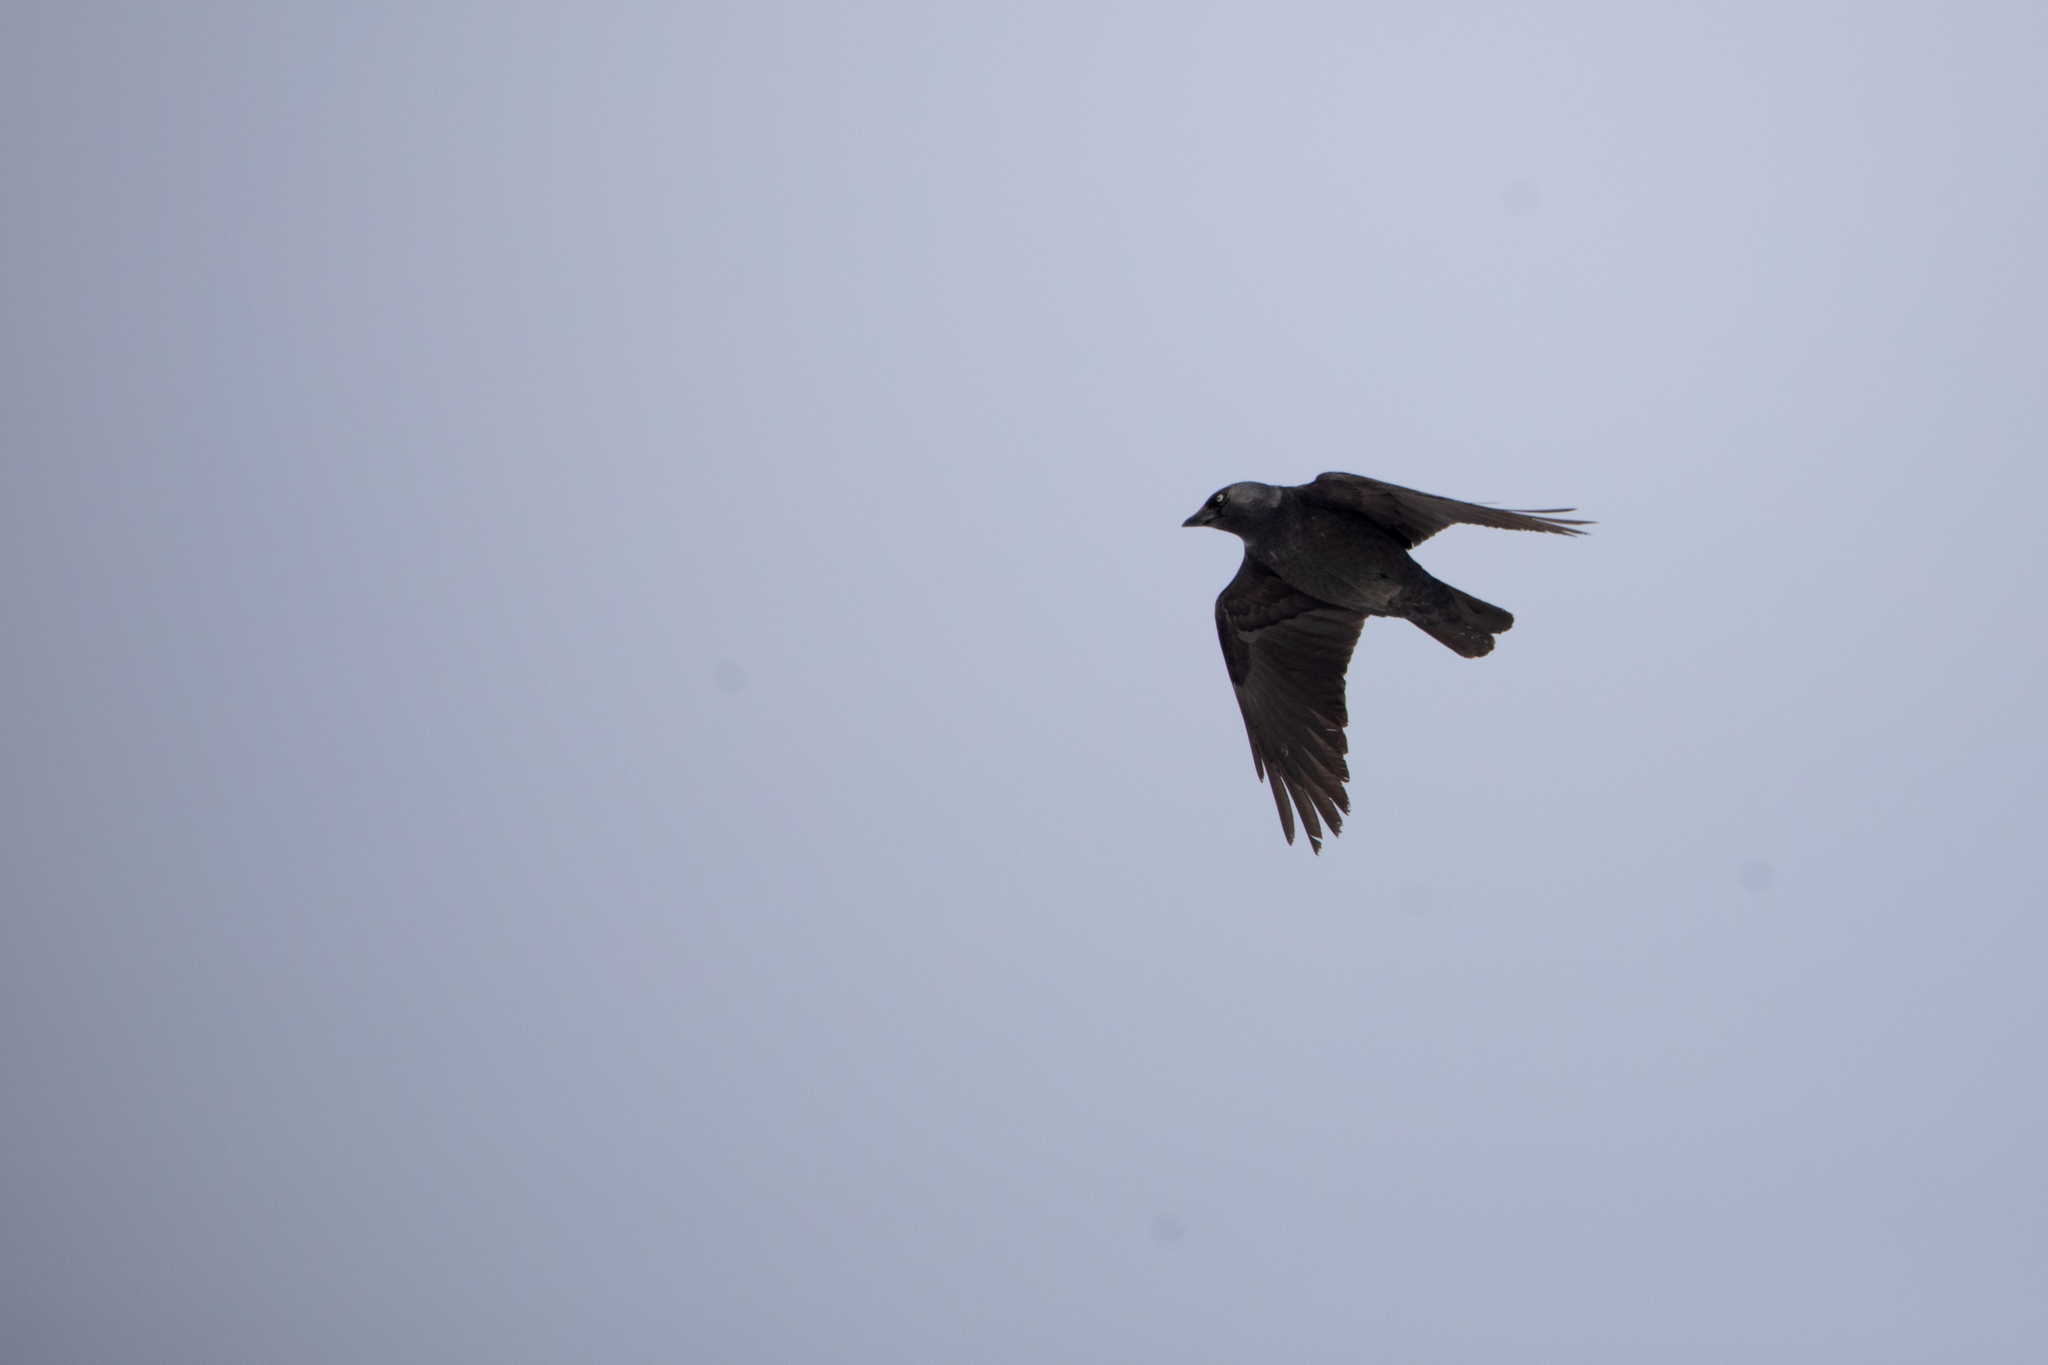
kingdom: Animalia
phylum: Chordata
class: Aves
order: Passeriformes
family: Corvidae
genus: Coloeus
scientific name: Coloeus monedula
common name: Western jackdaw
